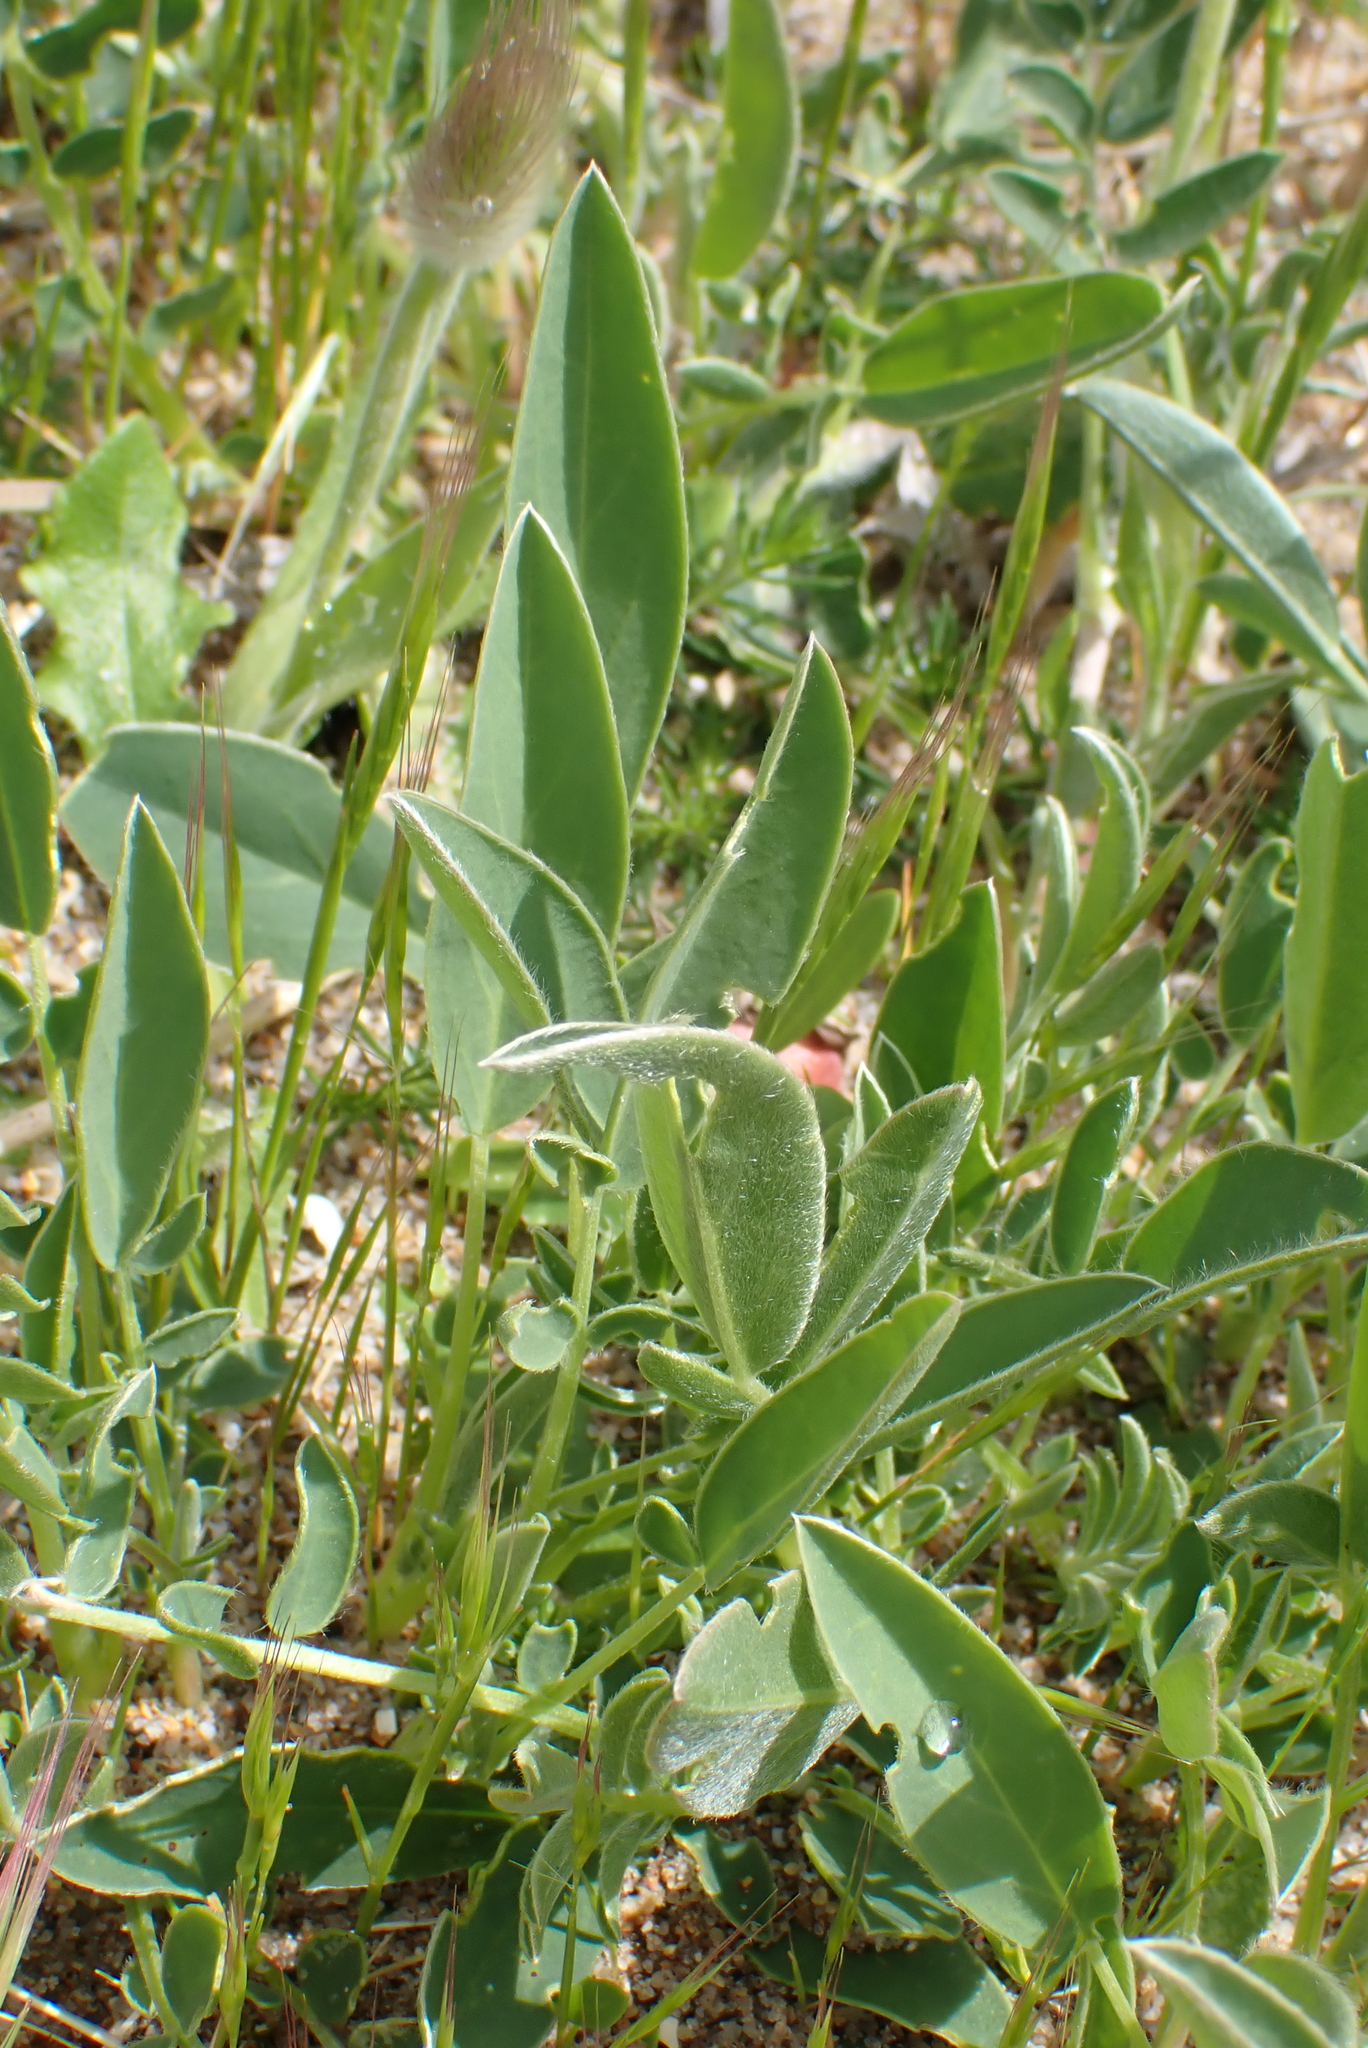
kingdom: Plantae
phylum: Tracheophyta
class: Magnoliopsida
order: Fabales
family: Fabaceae
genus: Anthyllis
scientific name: Anthyllis vulneraria
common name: Kidney vetch
